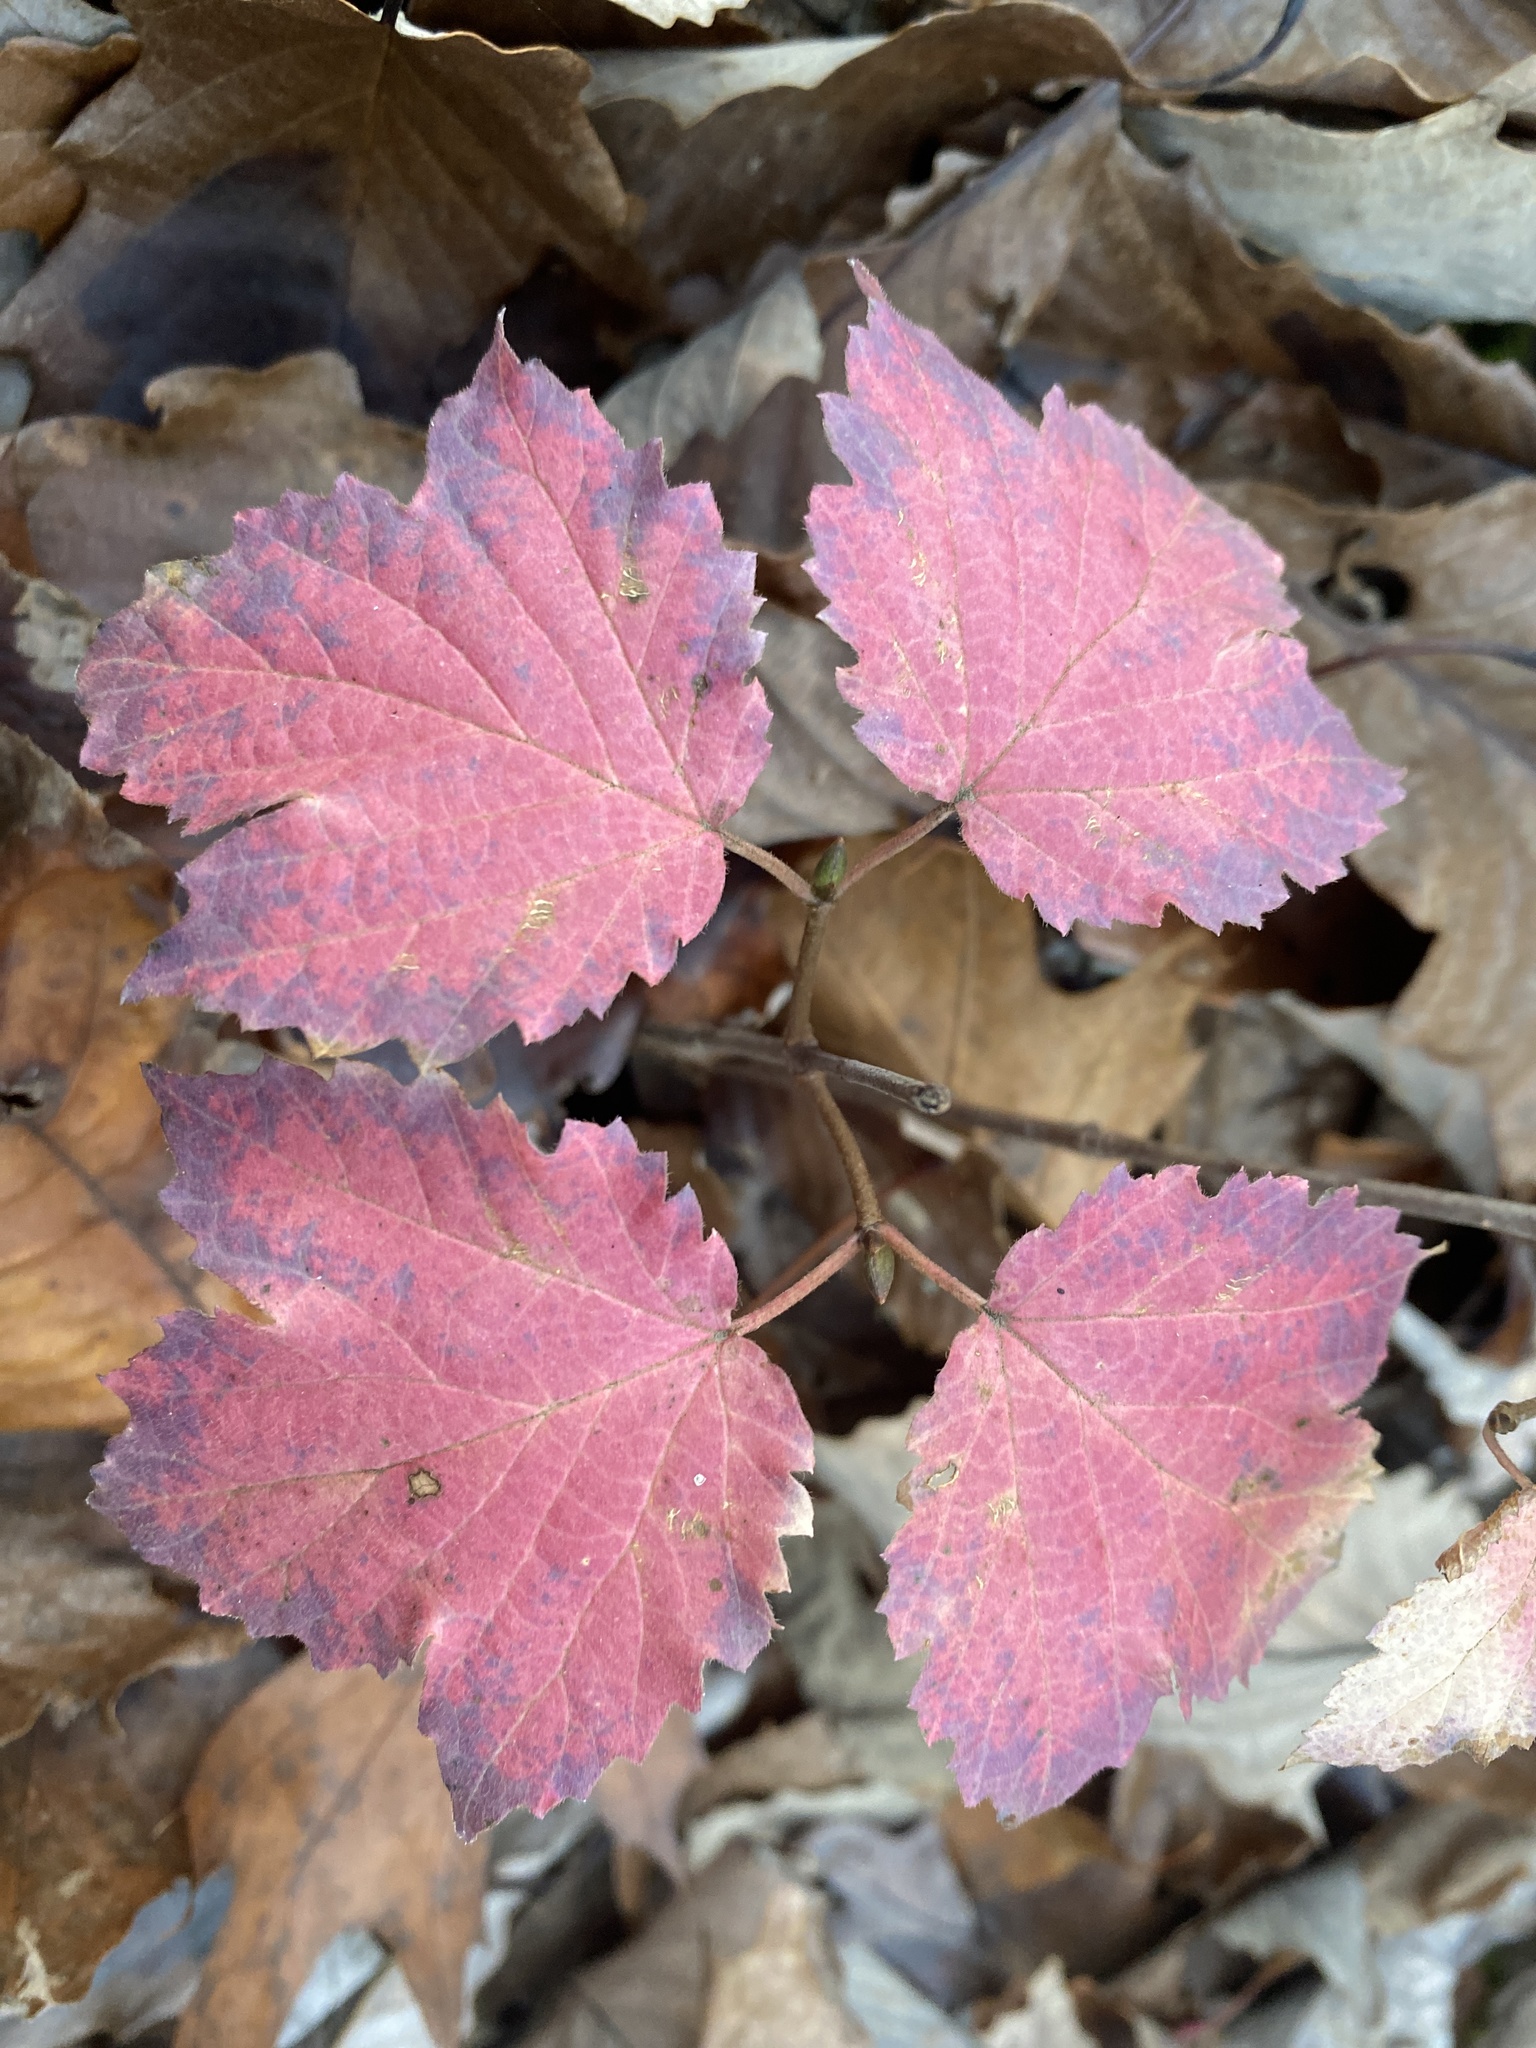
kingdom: Plantae
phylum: Tracheophyta
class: Magnoliopsida
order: Dipsacales
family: Viburnaceae
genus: Viburnum
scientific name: Viburnum acerifolium
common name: Dockmackie
